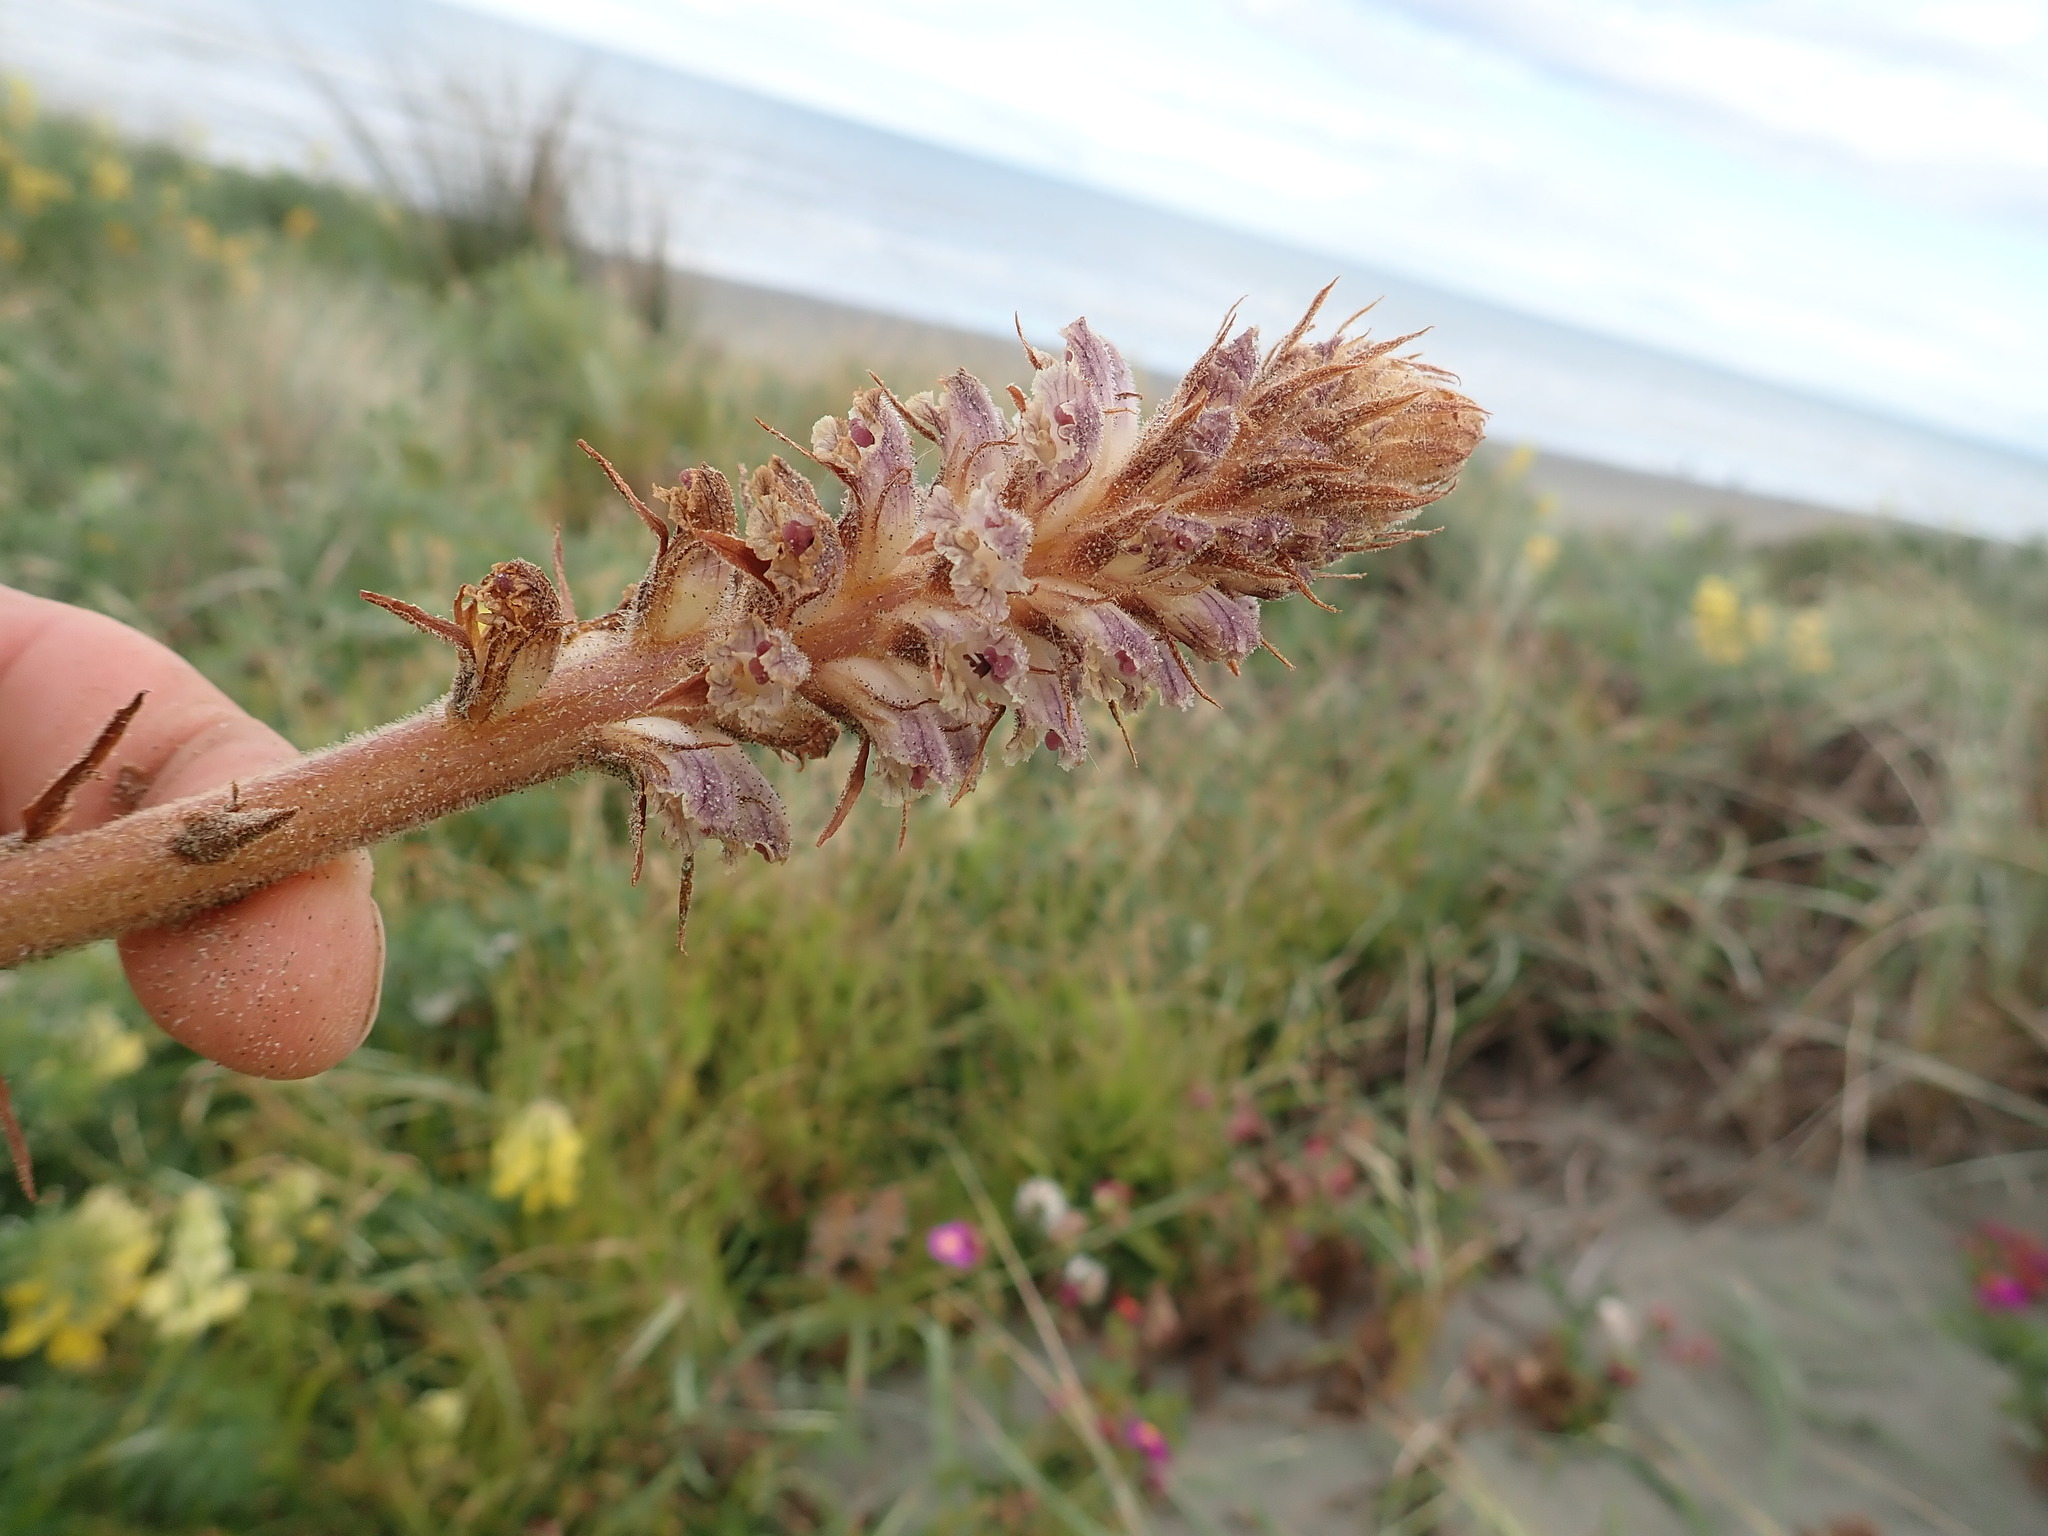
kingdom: Plantae
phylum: Tracheophyta
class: Magnoliopsida
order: Lamiales
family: Orobanchaceae
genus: Orobanche
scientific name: Orobanche minor
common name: Common broomrape
